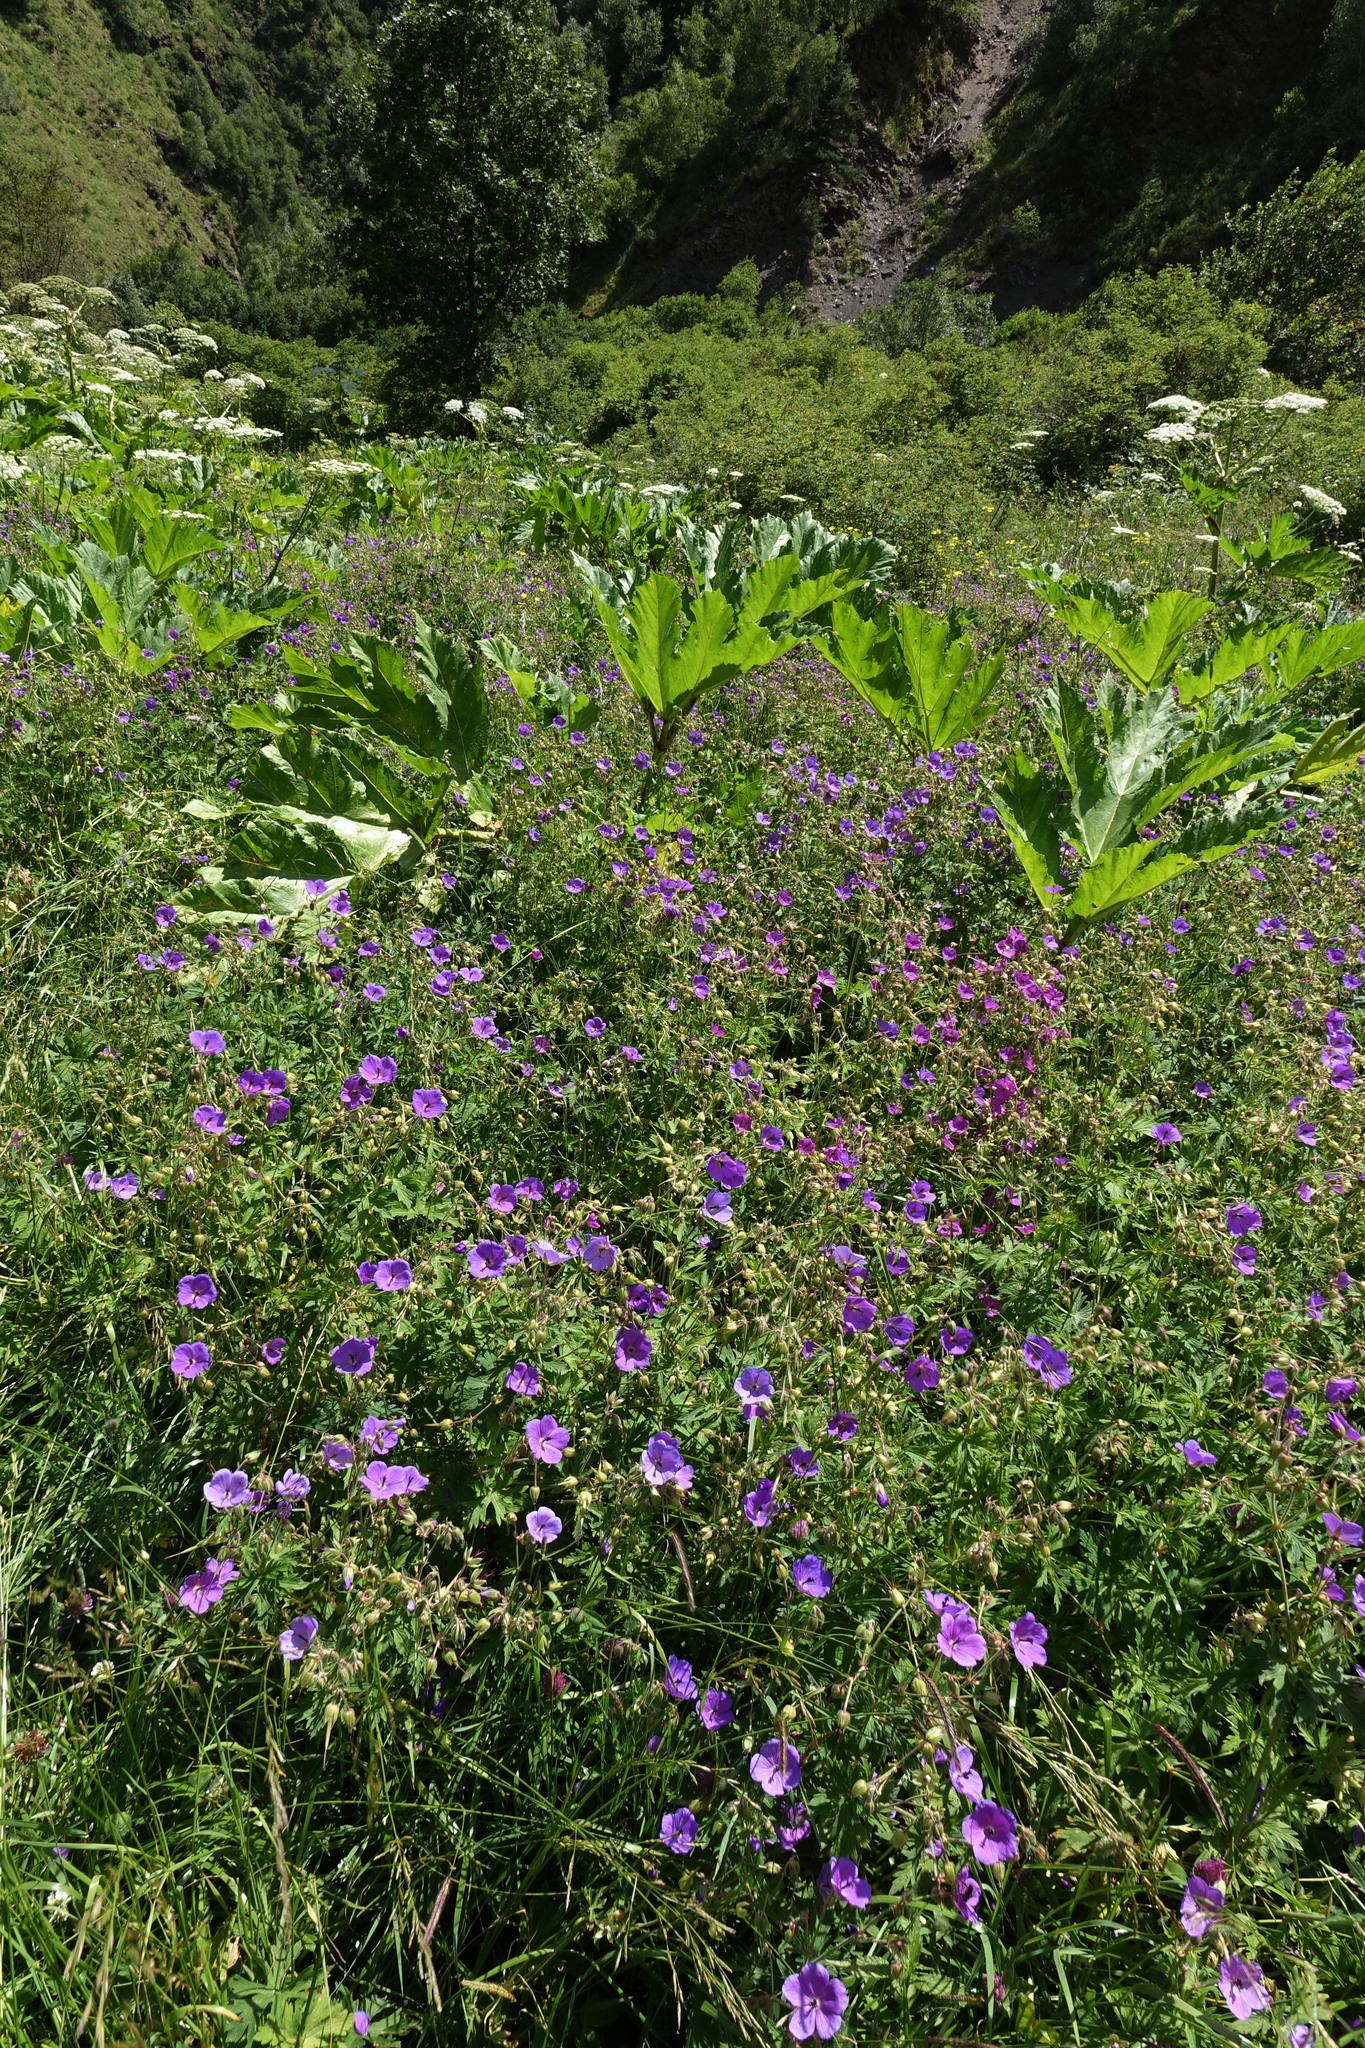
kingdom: Plantae
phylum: Tracheophyta
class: Magnoliopsida
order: Geraniales
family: Geraniaceae
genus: Geranium
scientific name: Geranium ruprechtii
